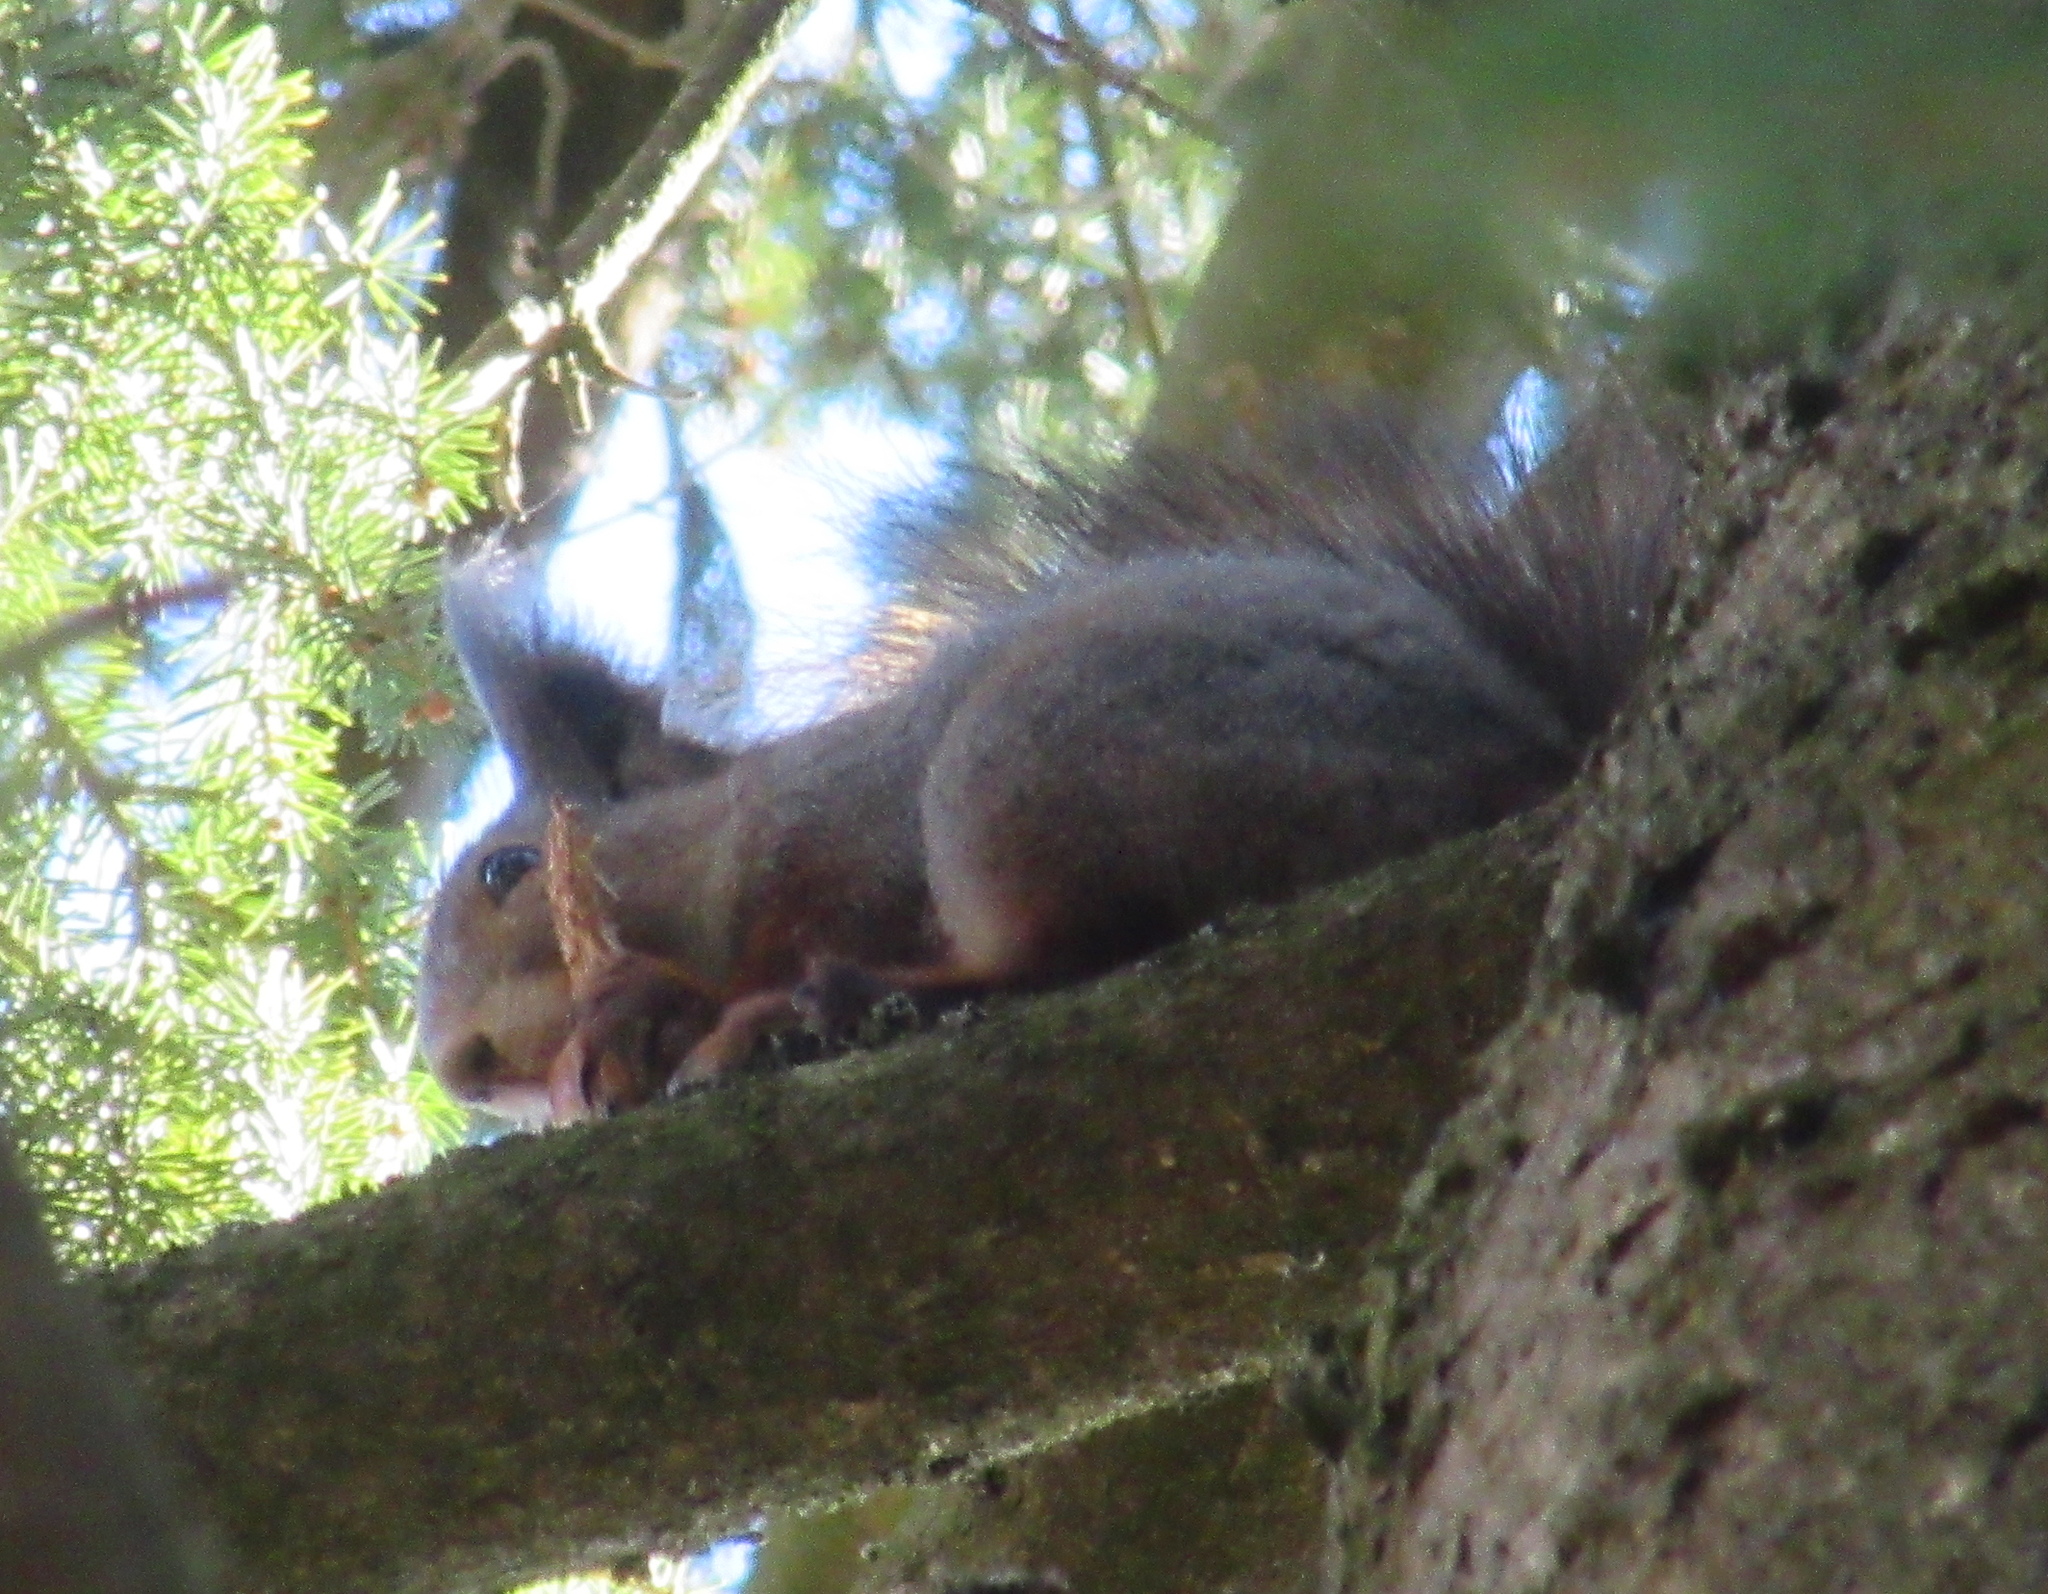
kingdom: Animalia
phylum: Chordata
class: Mammalia
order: Rodentia
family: Sciuridae
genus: Sciurus
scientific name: Sciurus vulgaris
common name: Eurasian red squirrel
